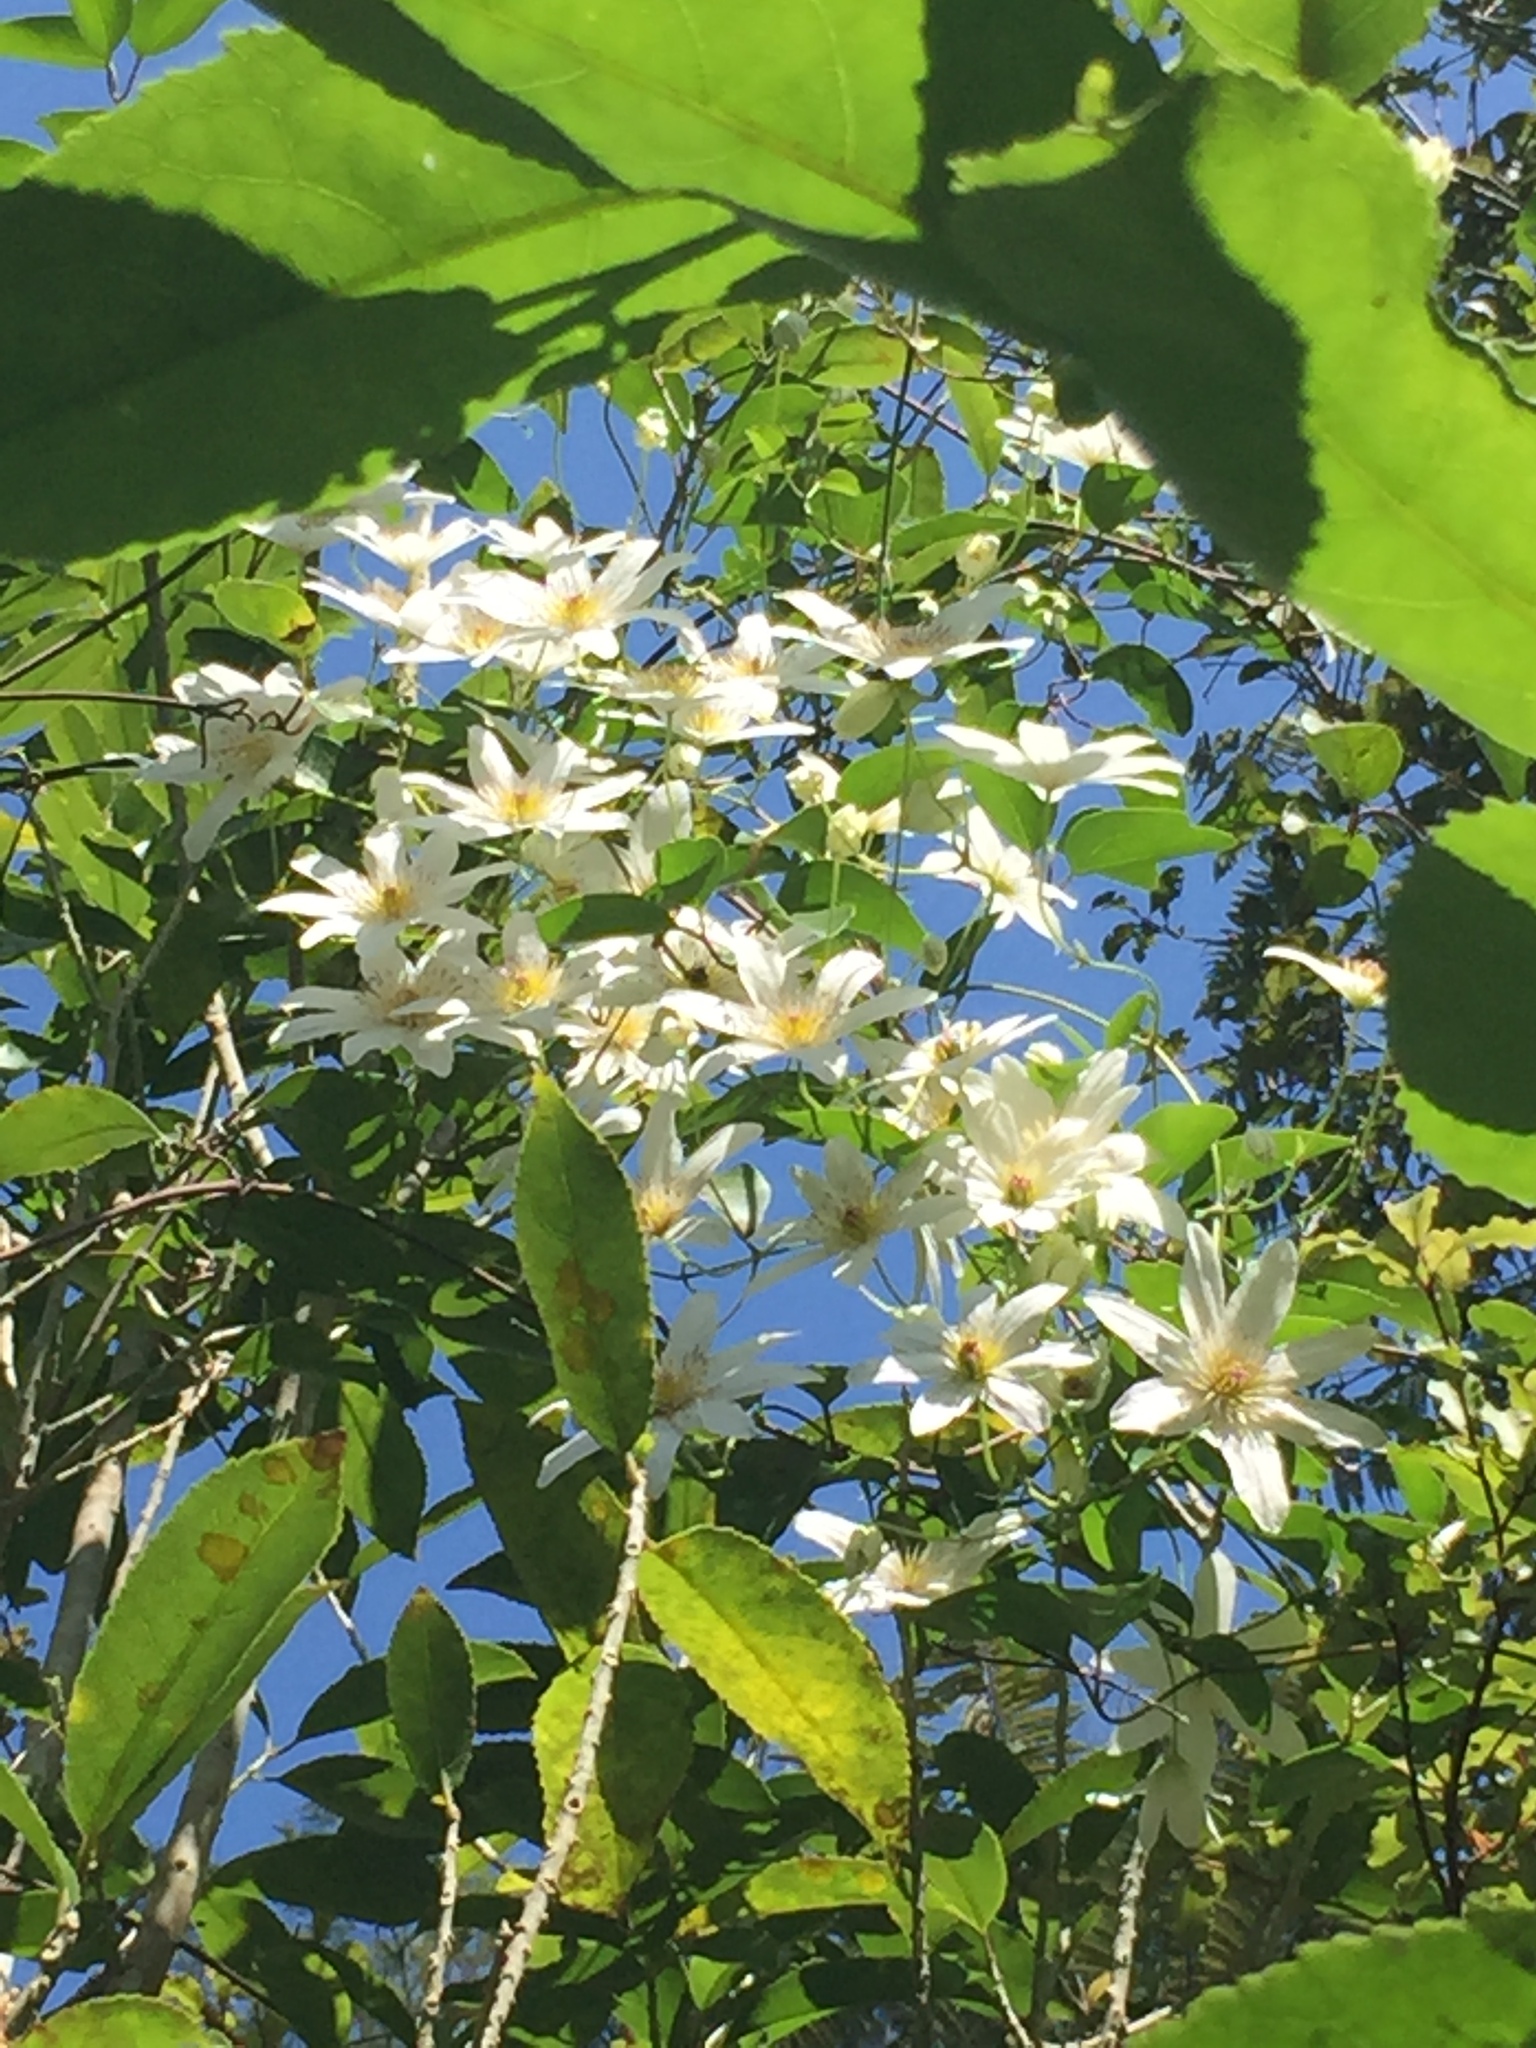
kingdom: Plantae
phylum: Tracheophyta
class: Magnoliopsida
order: Ranunculales
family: Ranunculaceae
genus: Clematis
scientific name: Clematis paniculata
